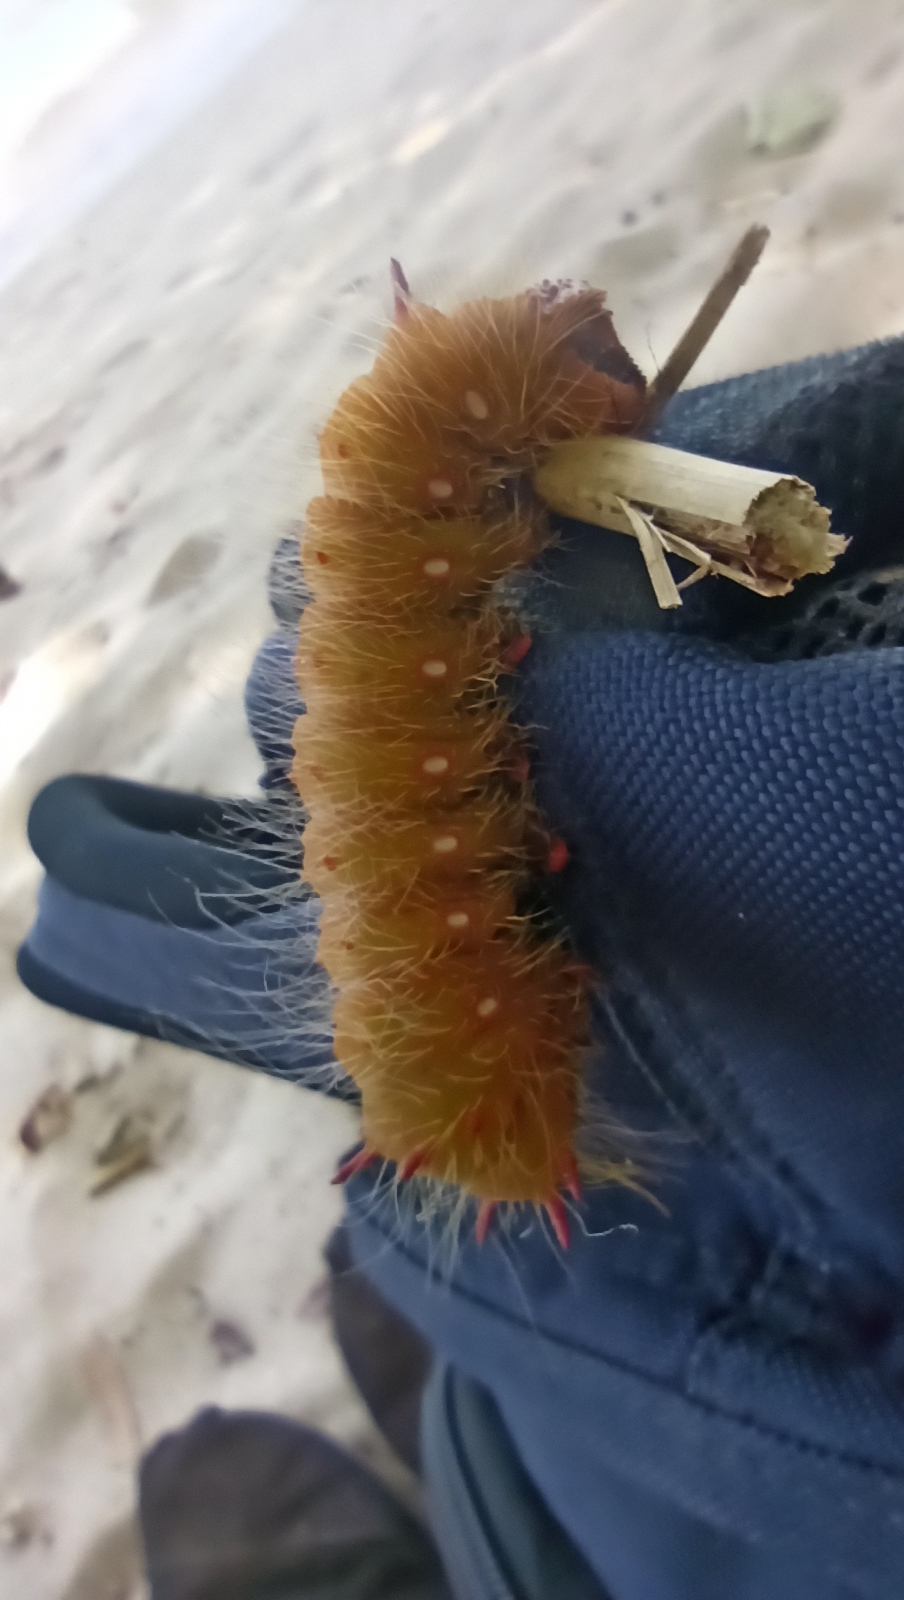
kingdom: Animalia
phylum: Arthropoda
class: Insecta
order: Lepidoptera
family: Saturniidae
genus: Eacles
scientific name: Eacles imperialis
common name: Imperial moth
